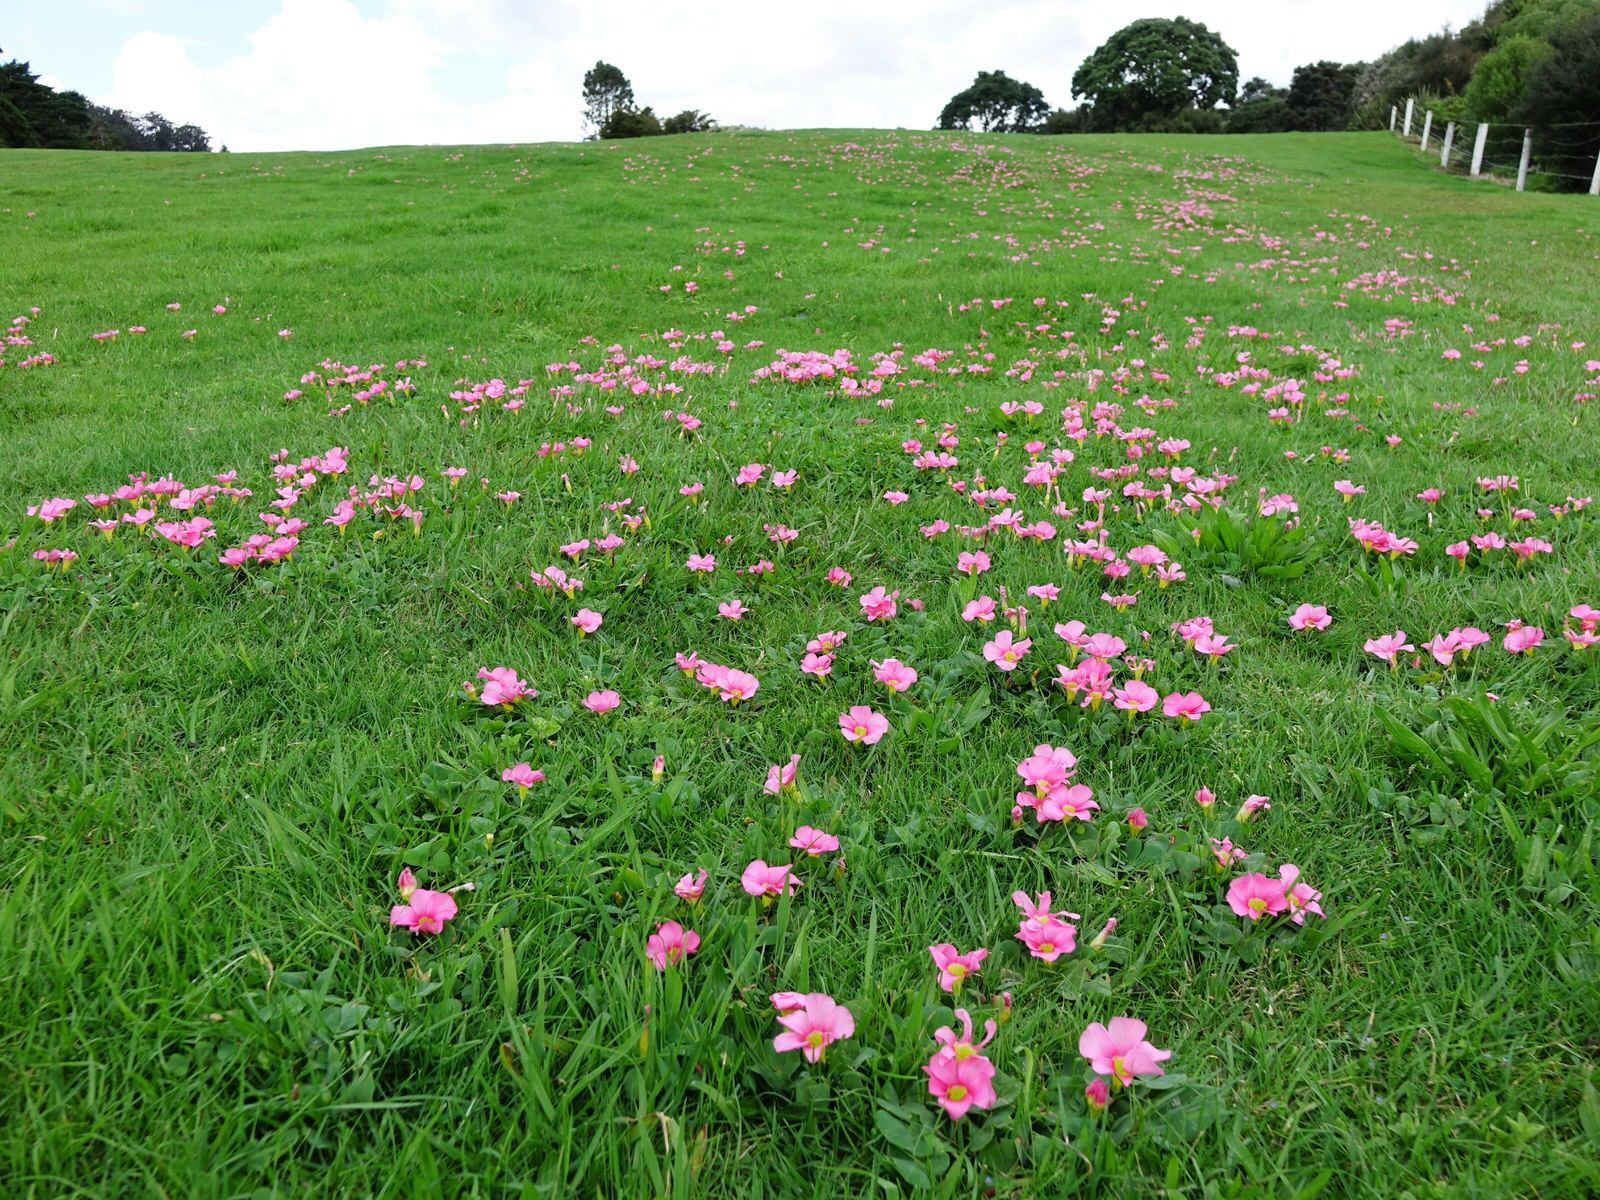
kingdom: Plantae
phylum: Tracheophyta
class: Magnoliopsida
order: Oxalidales
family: Oxalidaceae
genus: Oxalis
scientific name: Oxalis purpurea
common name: Purple woodsorrel
